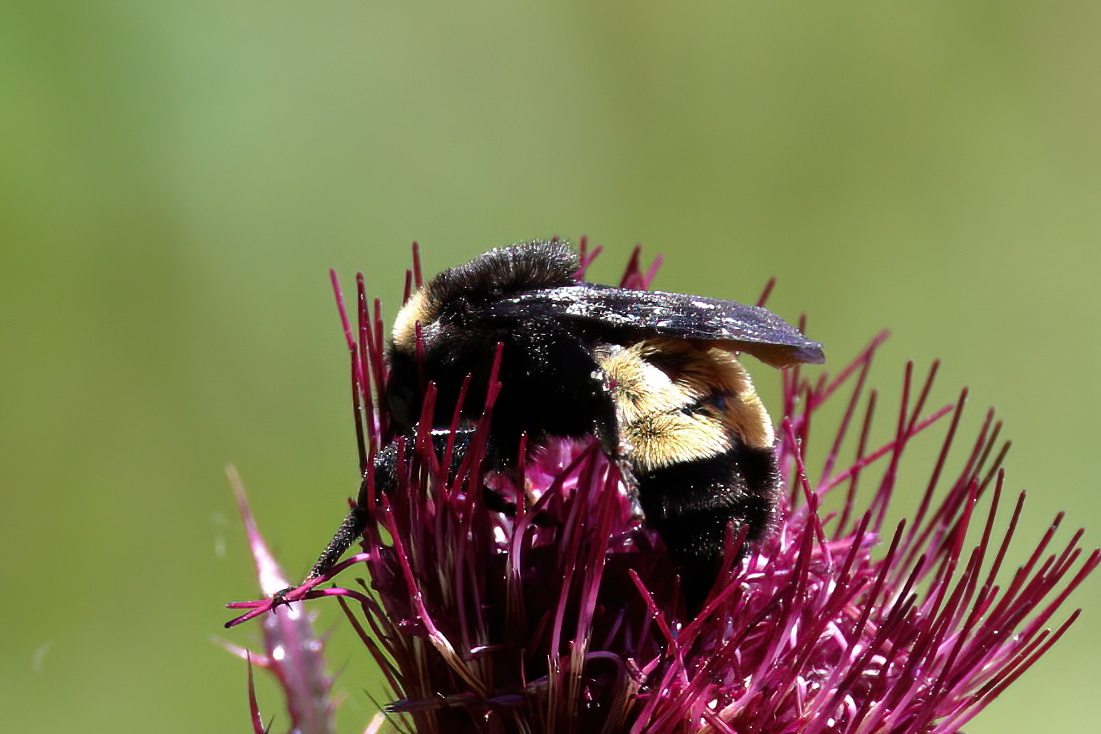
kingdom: Animalia
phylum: Arthropoda
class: Insecta
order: Hymenoptera
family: Apidae
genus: Bombus
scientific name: Bombus pensylvanicus
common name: Bumble bee
